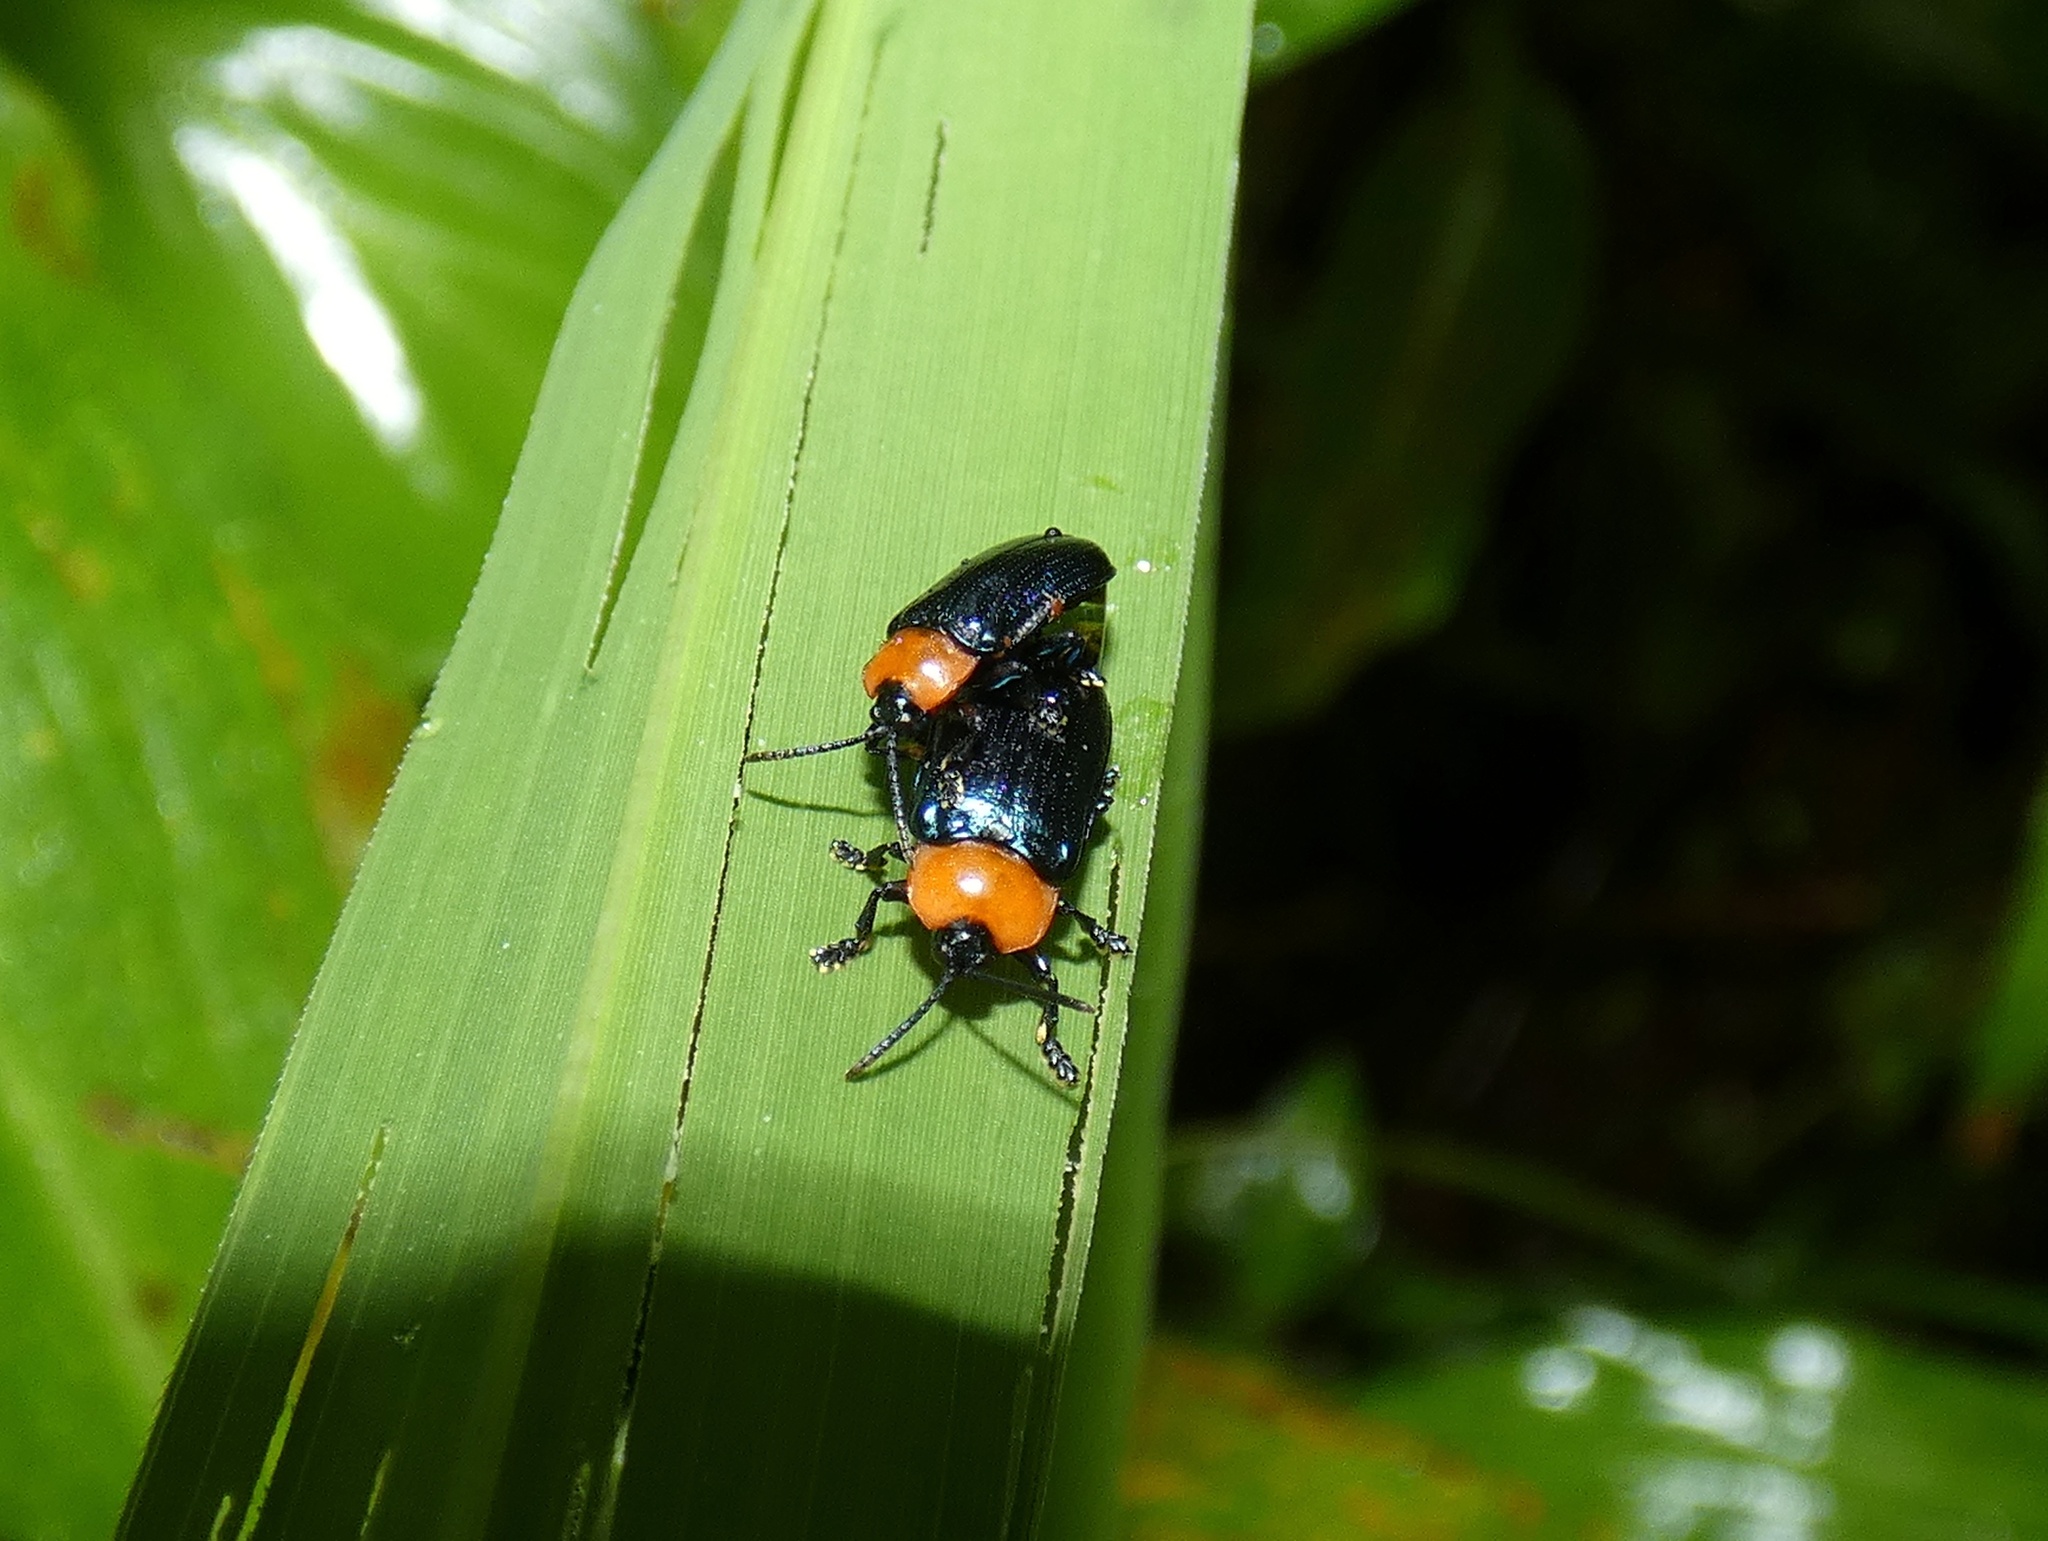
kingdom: Animalia
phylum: Arthropoda
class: Insecta
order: Coleoptera
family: Chrysomelidae
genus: Oediopalpa
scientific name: Oediopalpa guerinii
